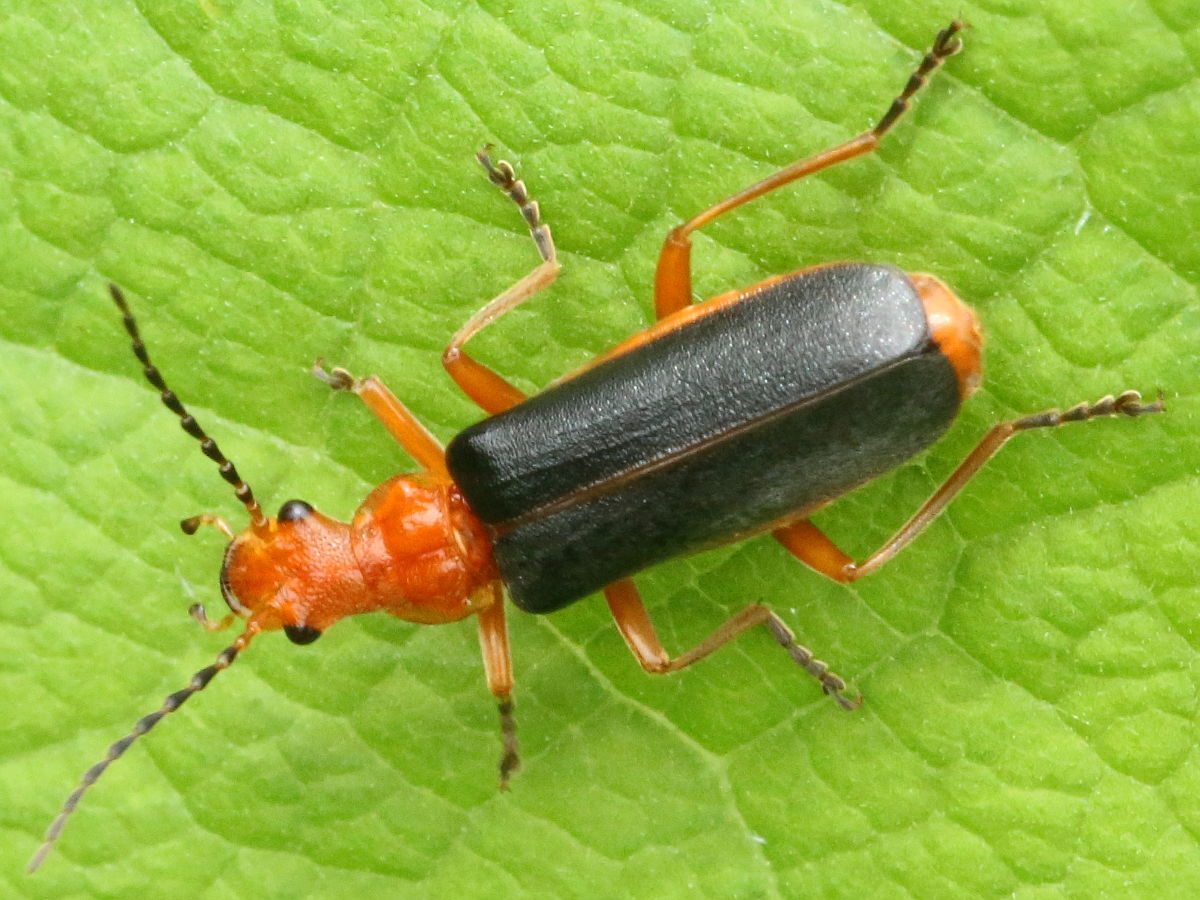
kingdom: Animalia
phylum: Arthropoda
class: Insecta
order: Coleoptera
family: Cantharidae
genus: Podabrus
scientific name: Podabrus tomentosus
